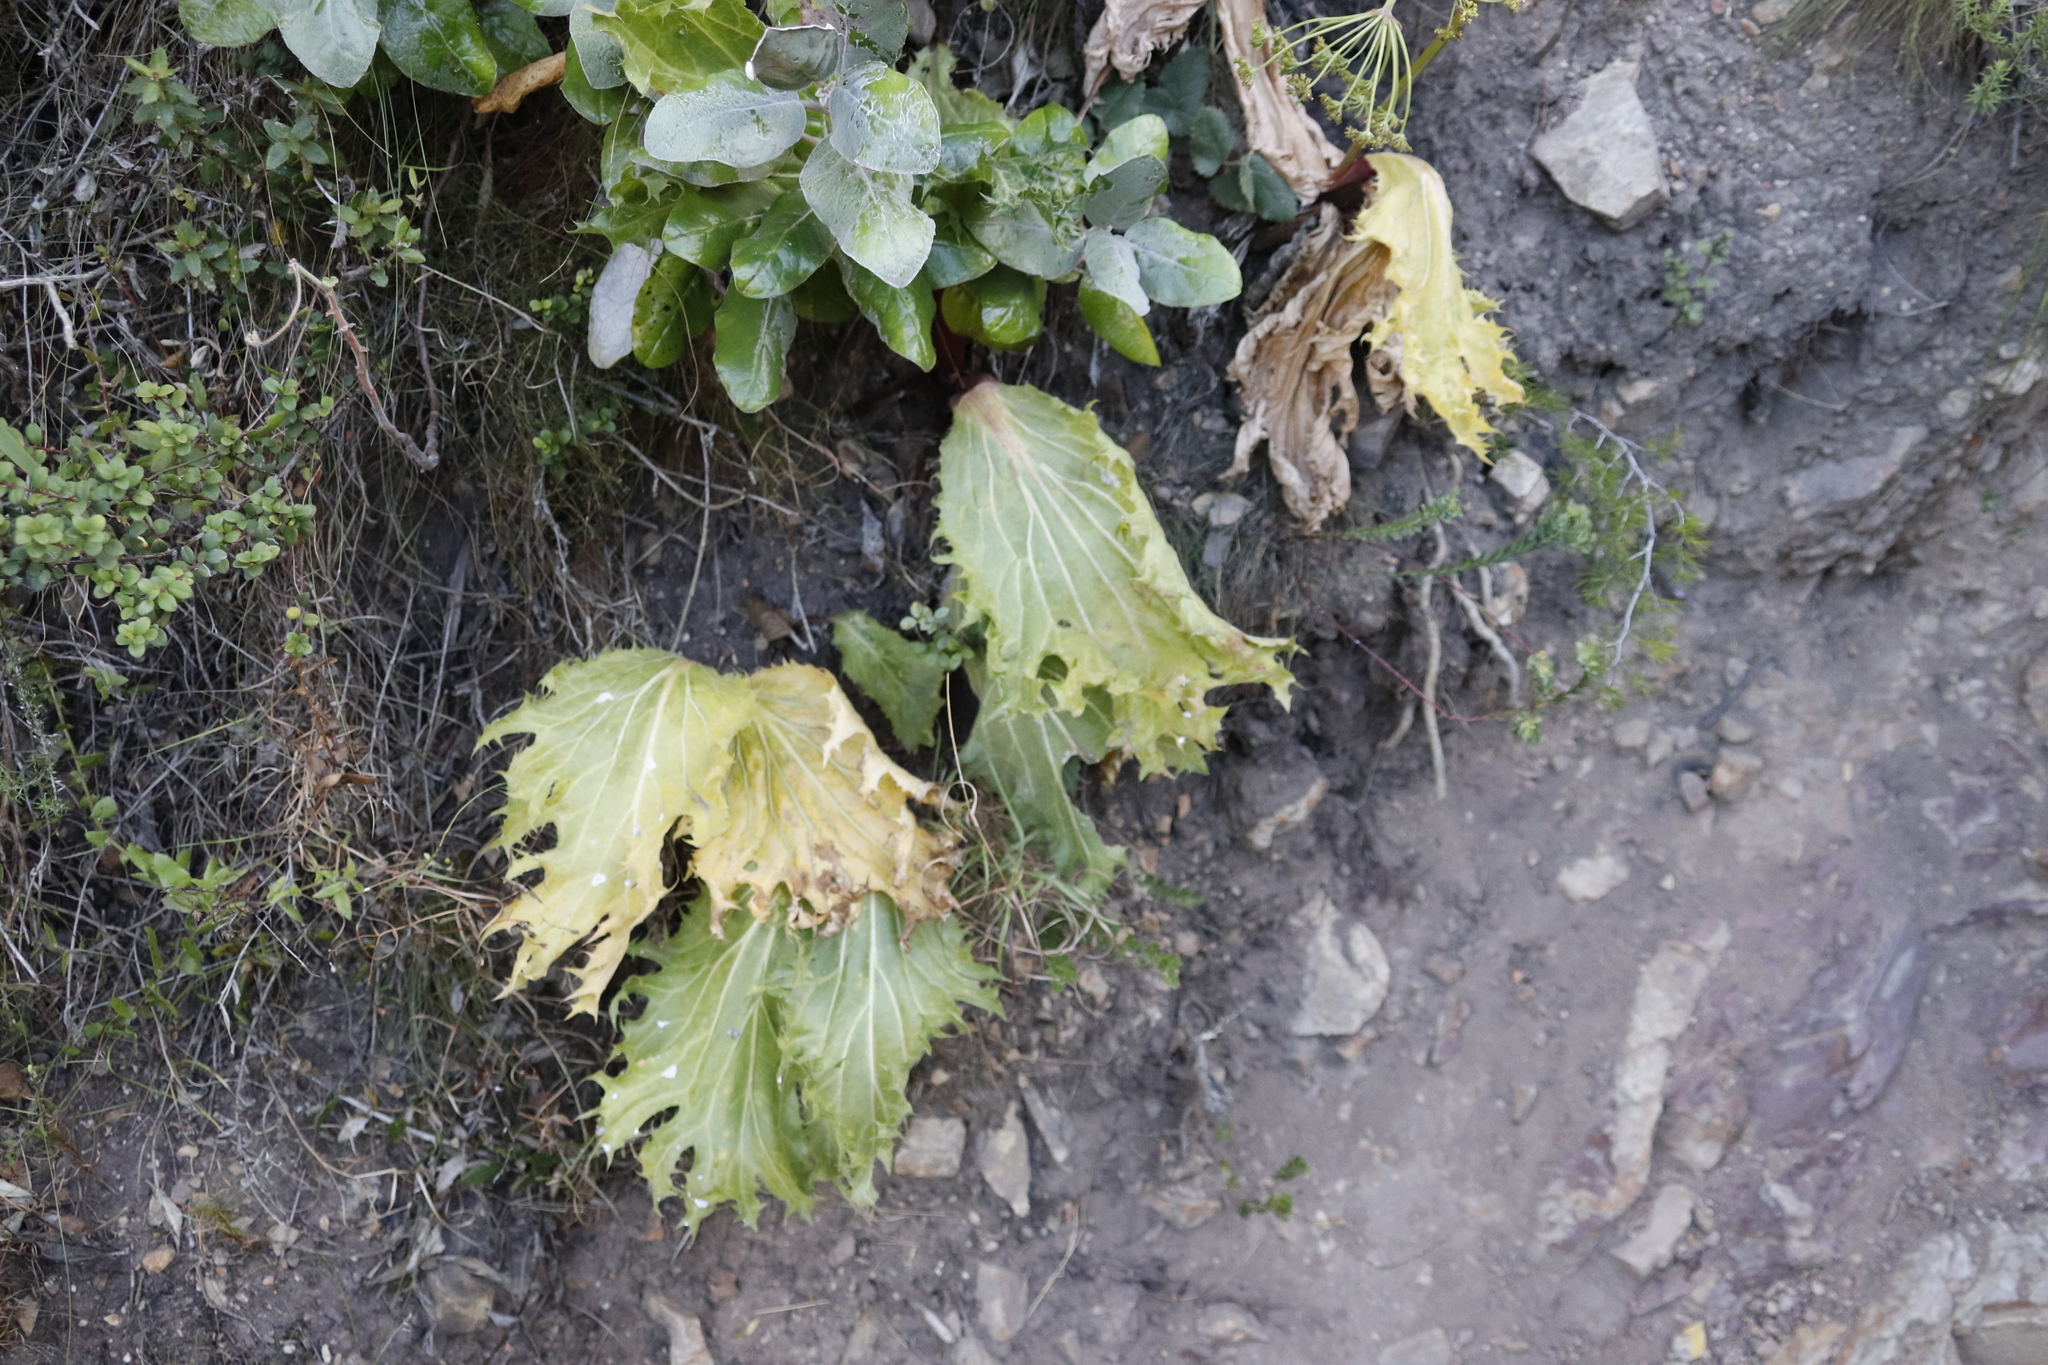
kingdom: Plantae
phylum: Tracheophyta
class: Magnoliopsida
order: Apiales
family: Apiaceae
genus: Lichtensteinia
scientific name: Lichtensteinia lacera
